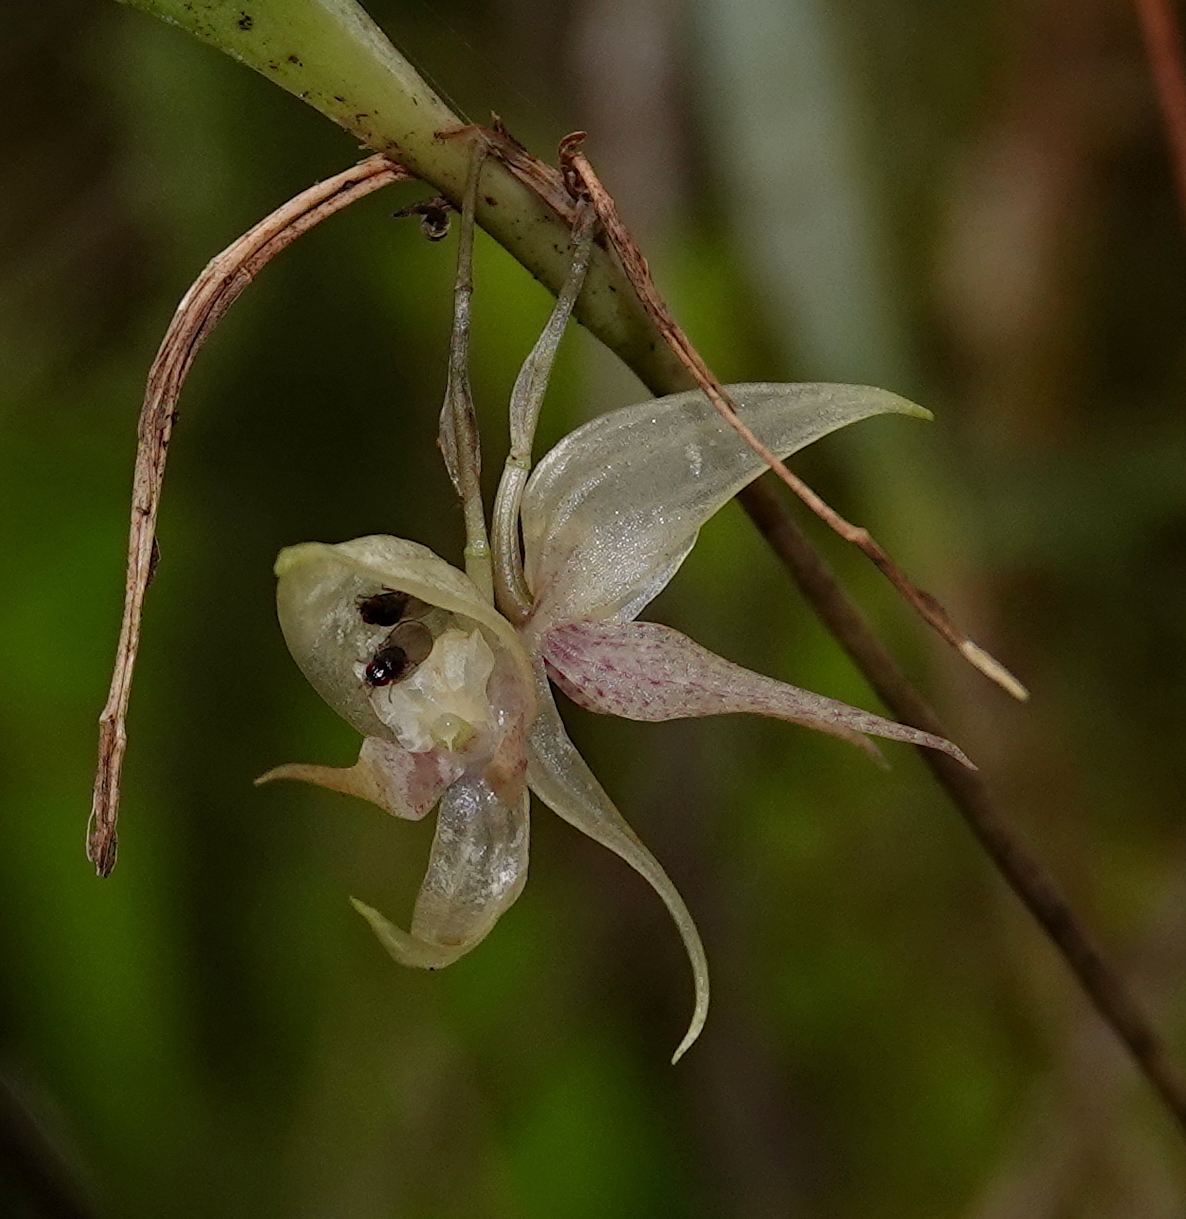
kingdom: Plantae
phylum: Tracheophyta
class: Liliopsida
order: Asparagales
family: Orchidaceae
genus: Pleurothallis
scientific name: Pleurothallis pulvinaris
